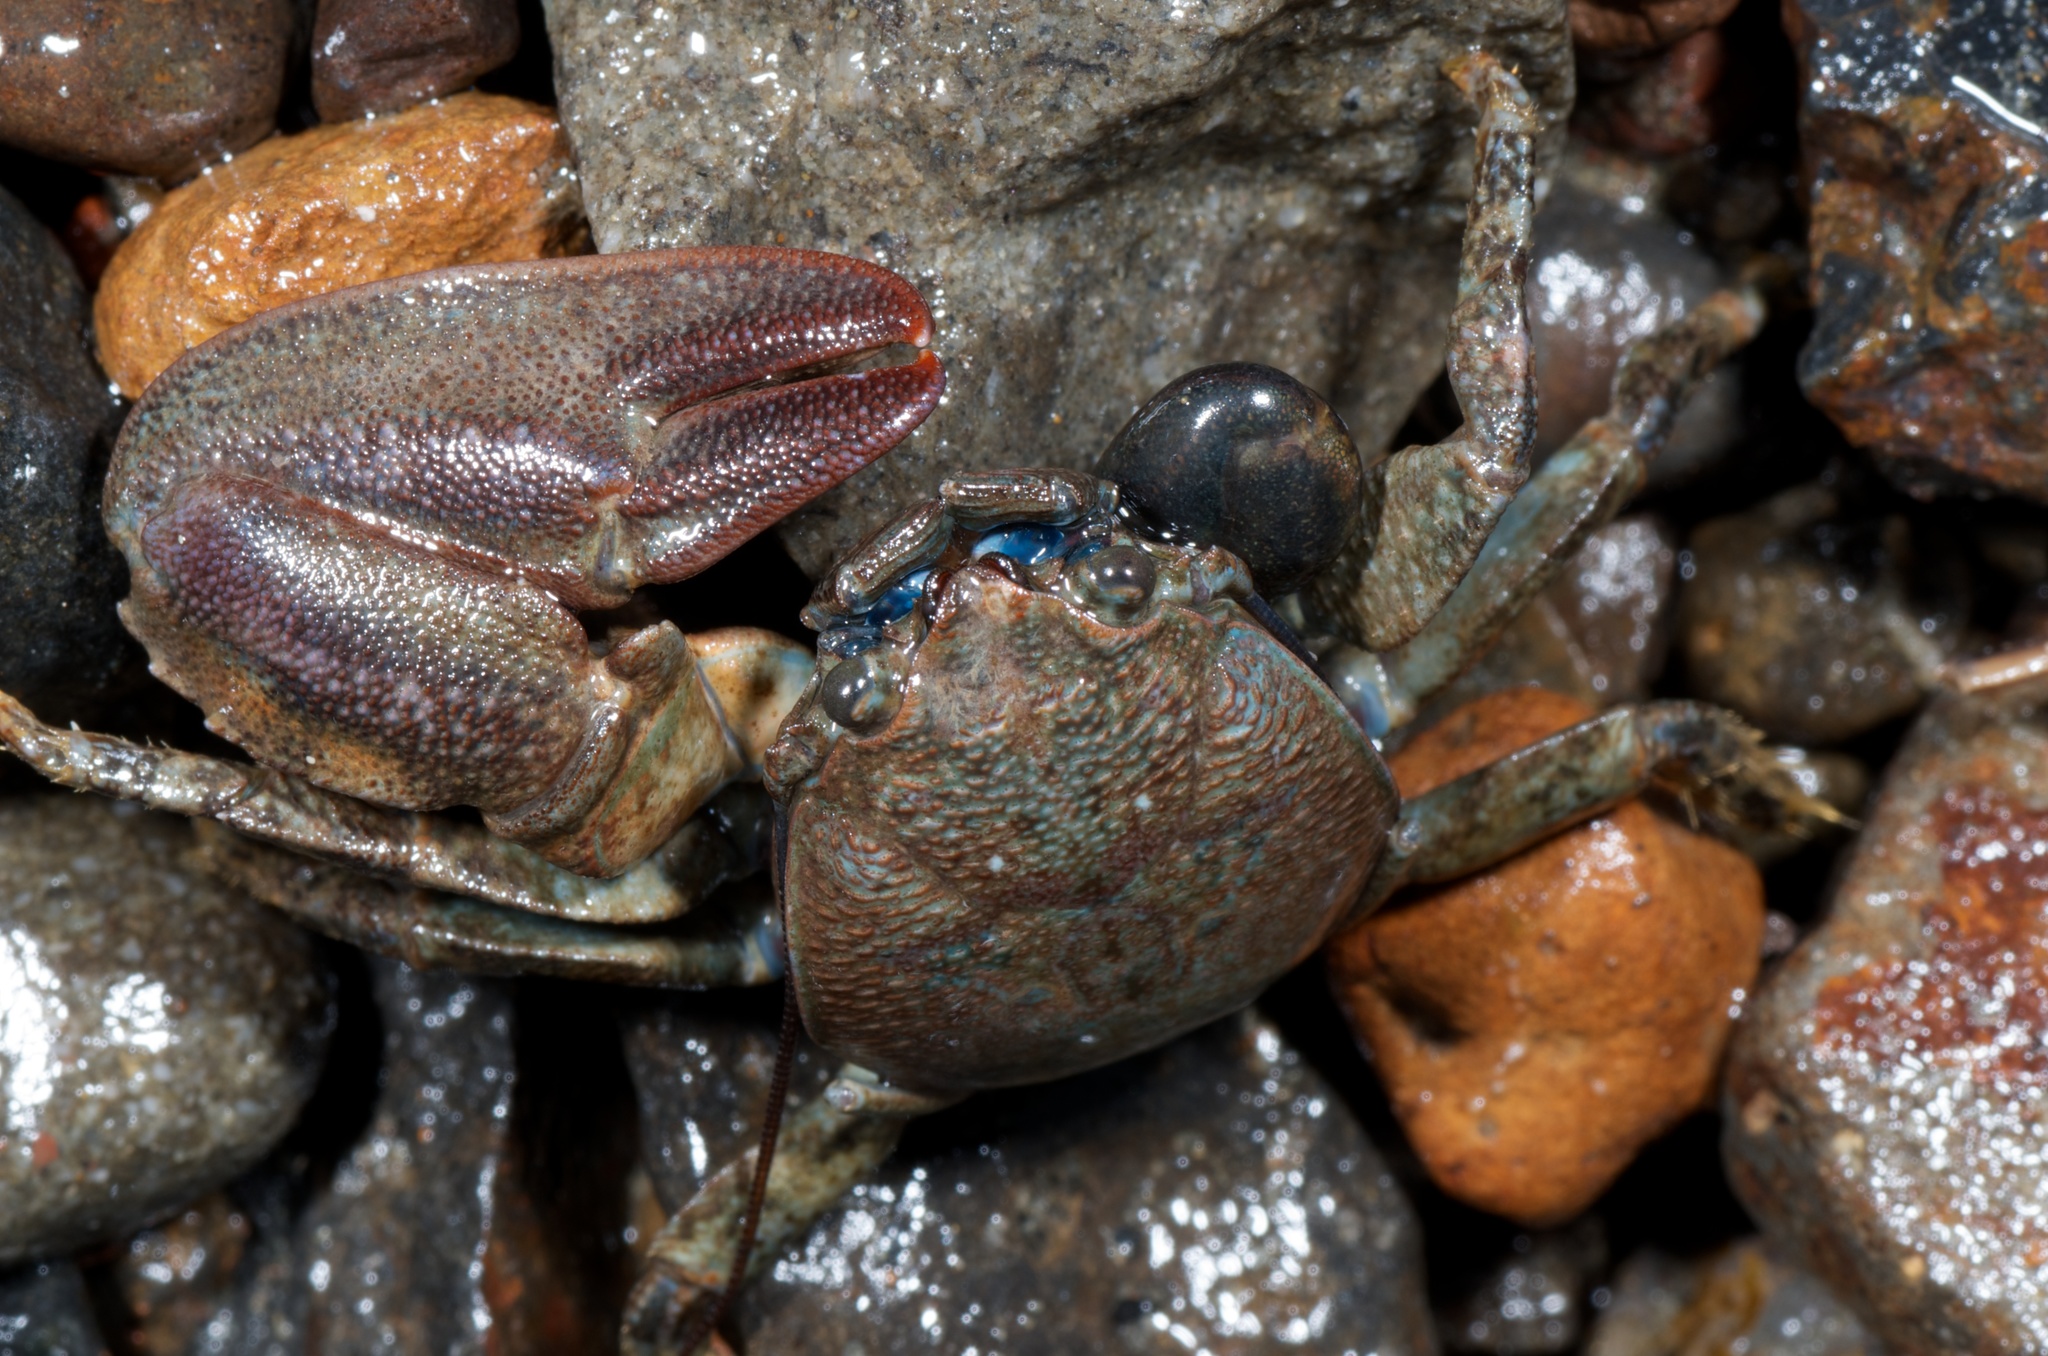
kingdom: Animalia
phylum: Arthropoda
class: Malacostraca
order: Decapoda
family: Porcellanidae
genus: Petrolisthes
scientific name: Petrolisthes elongatus
